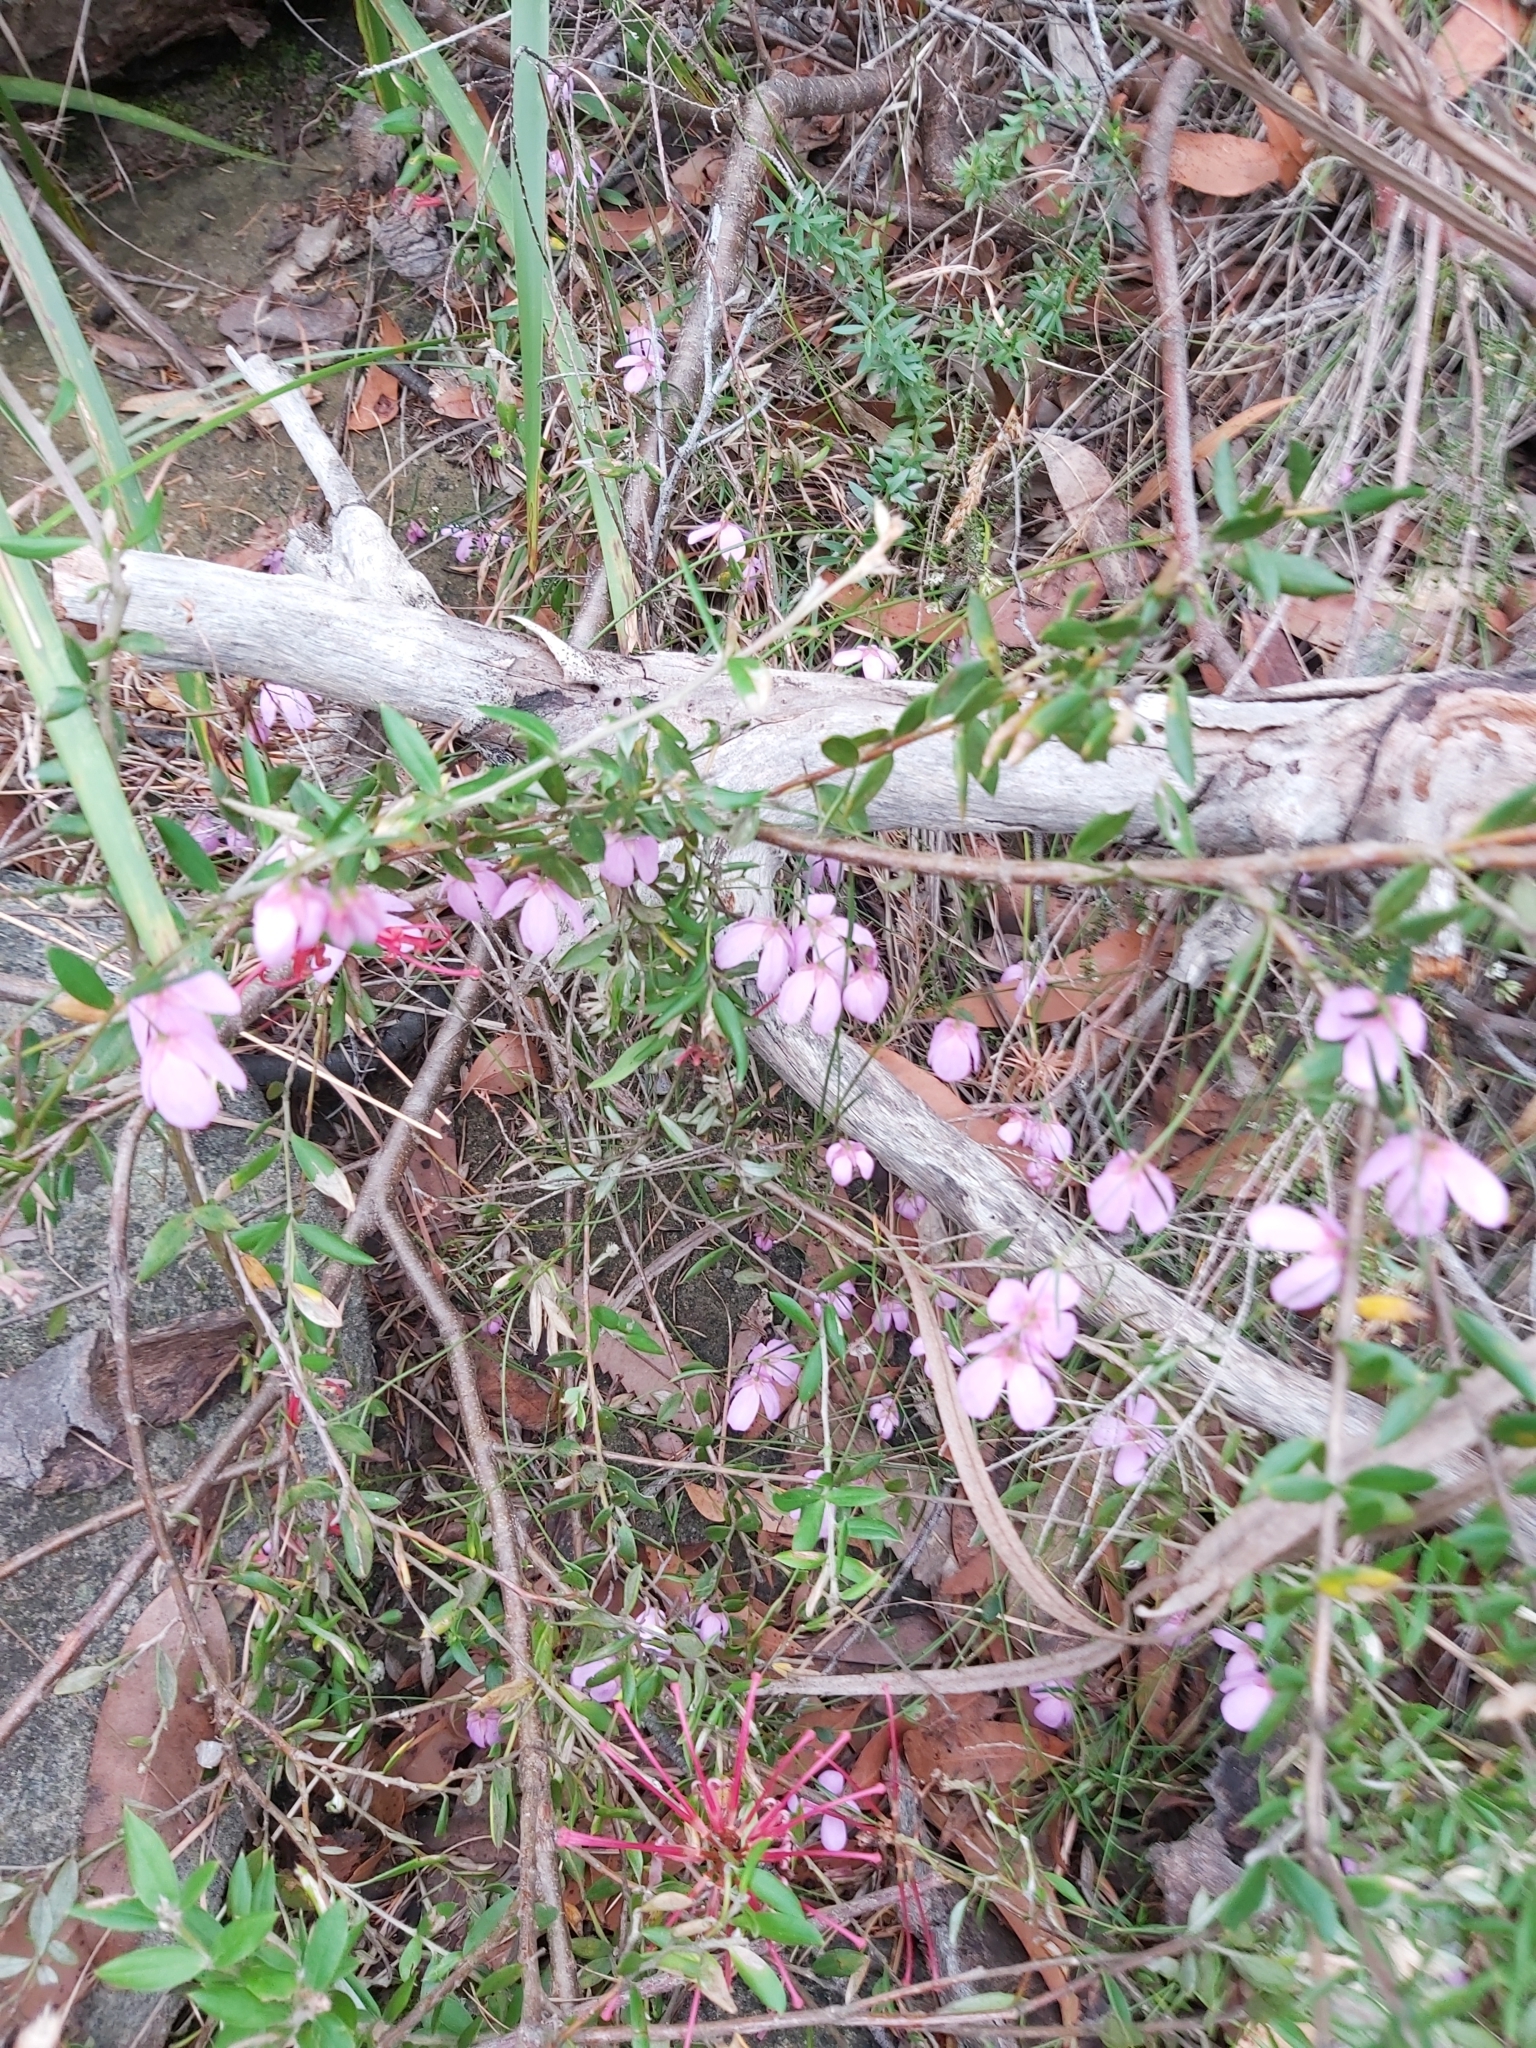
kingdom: Plantae
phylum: Tracheophyta
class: Magnoliopsida
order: Oxalidales
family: Elaeocarpaceae
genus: Tetratheca
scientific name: Tetratheca shiressii
